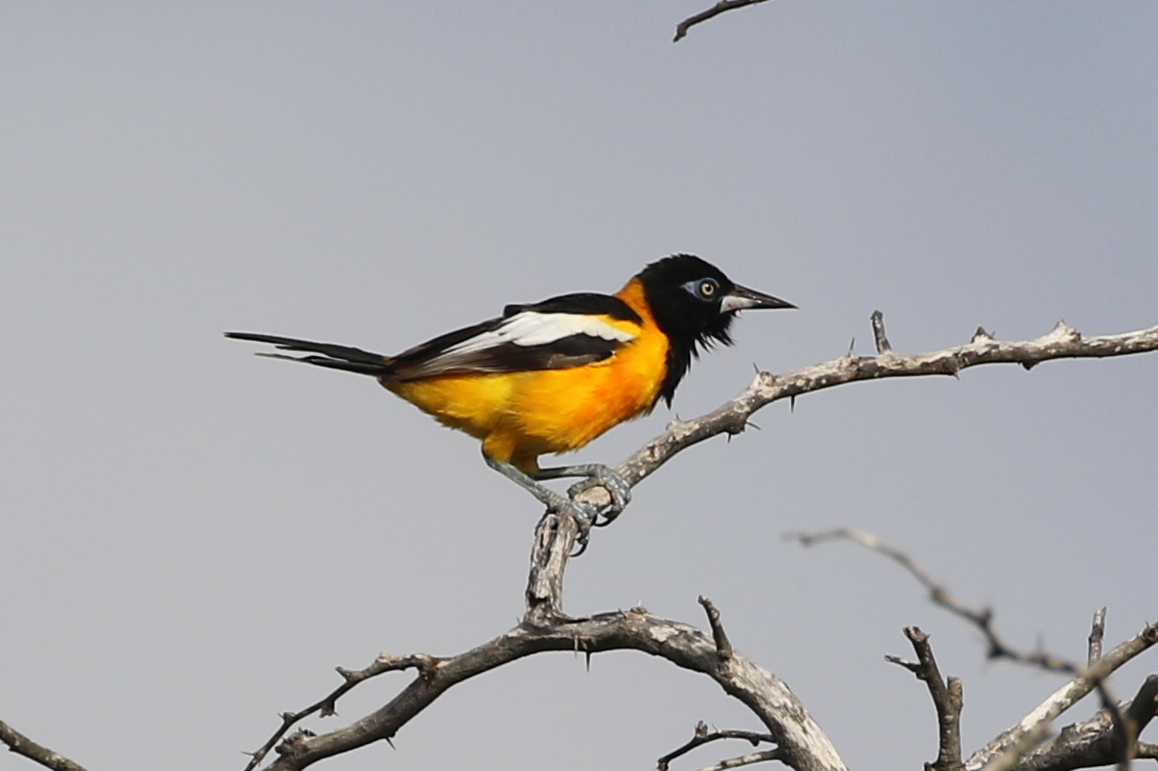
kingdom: Animalia
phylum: Chordata
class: Aves
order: Passeriformes
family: Icteridae
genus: Icterus
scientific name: Icterus icterus
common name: Venezuelan troupial
